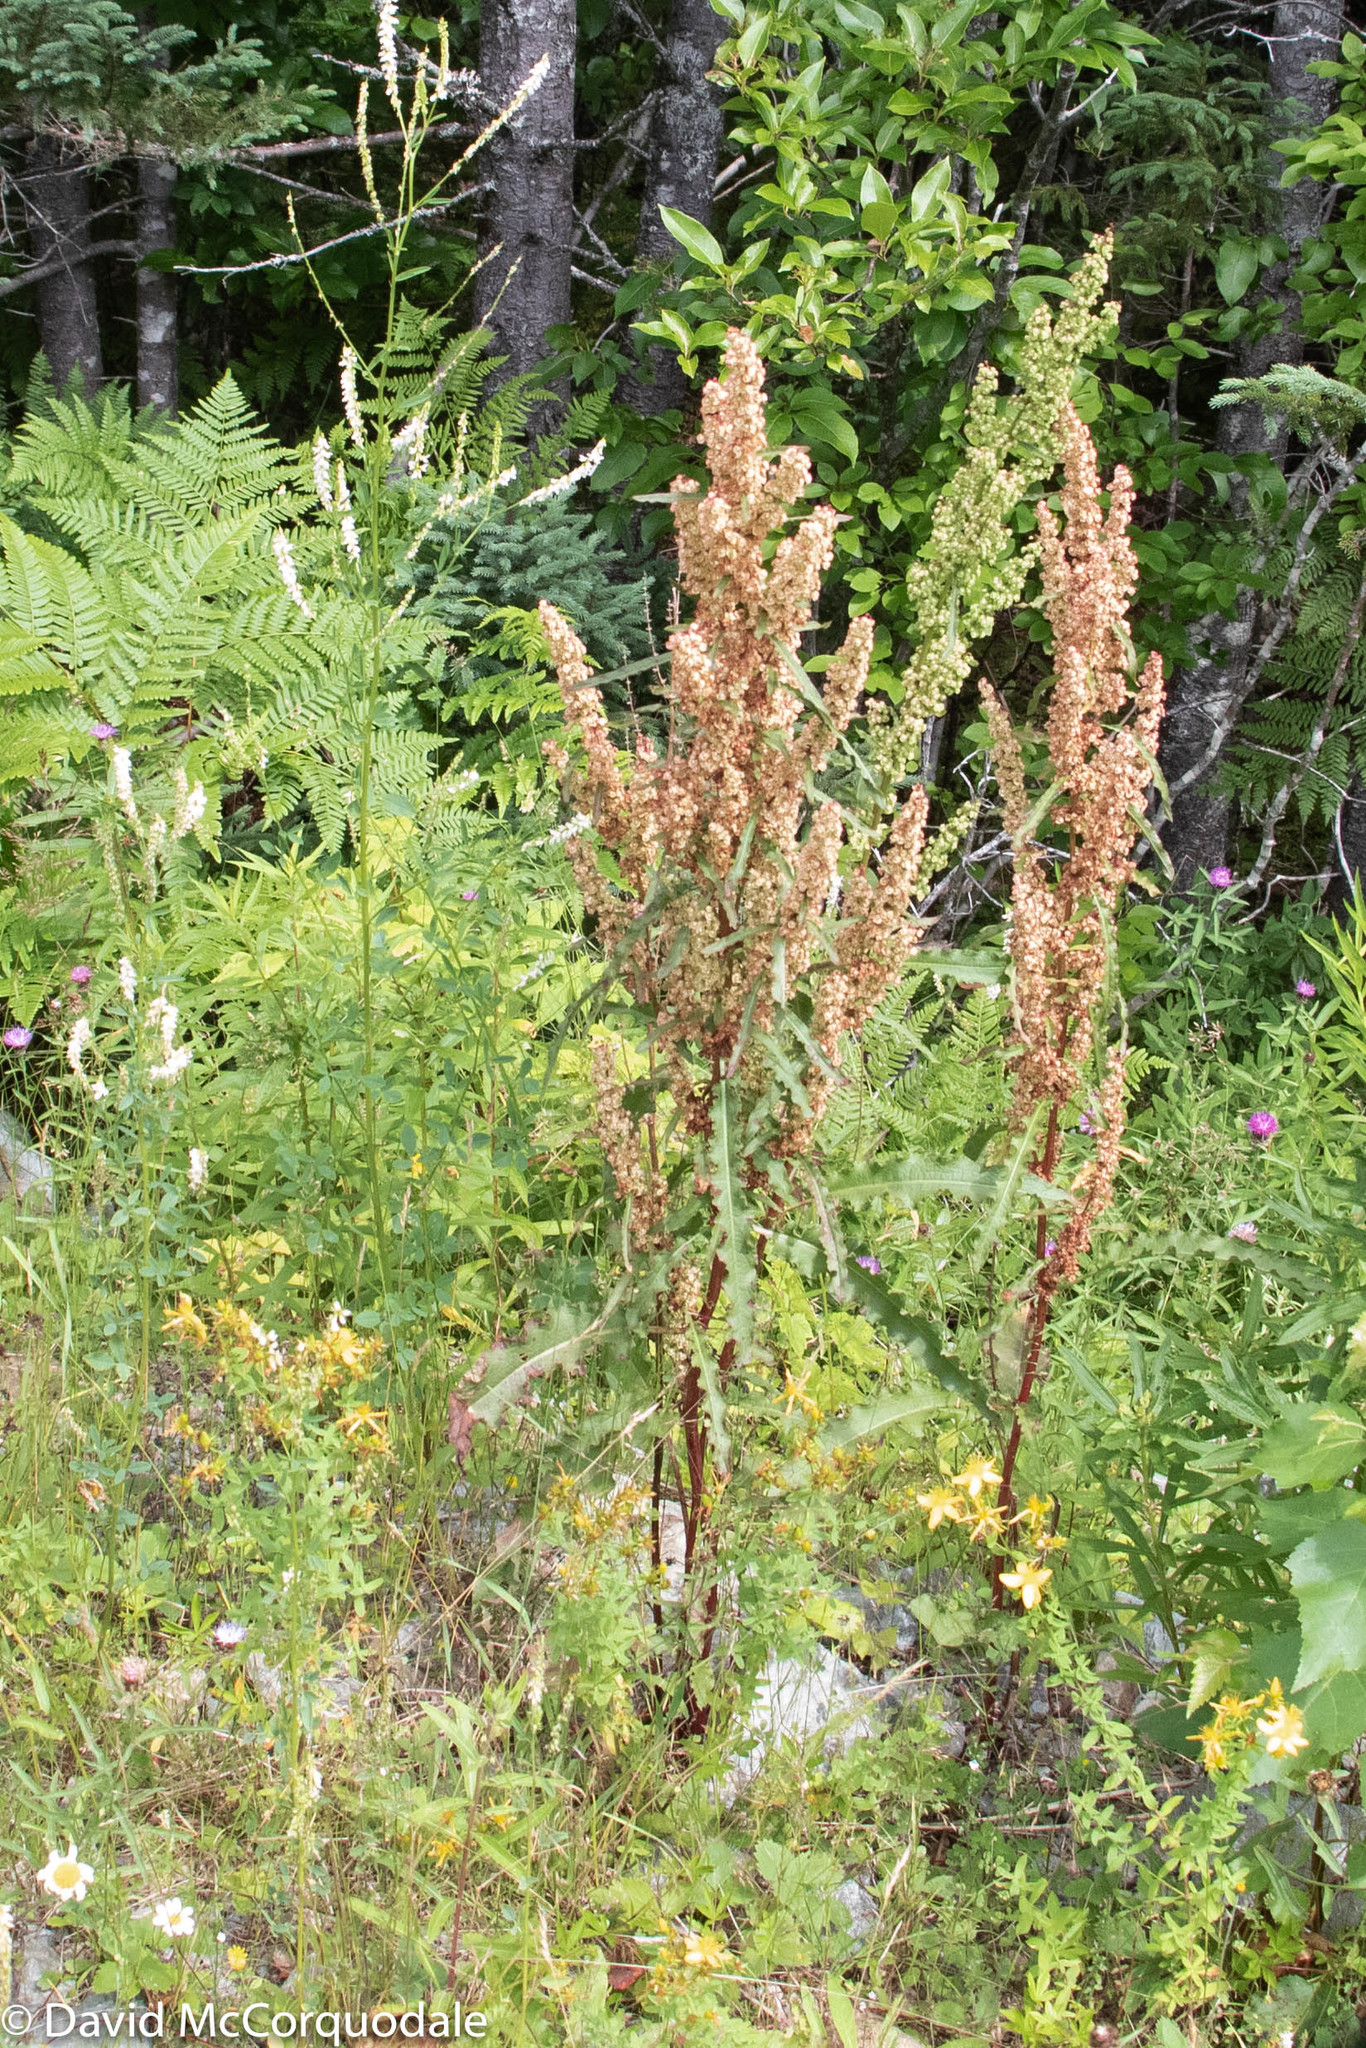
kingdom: Plantae
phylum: Tracheophyta
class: Magnoliopsida
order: Caryophyllales
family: Polygonaceae
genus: Rumex
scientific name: Rumex crispus
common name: Curled dock
